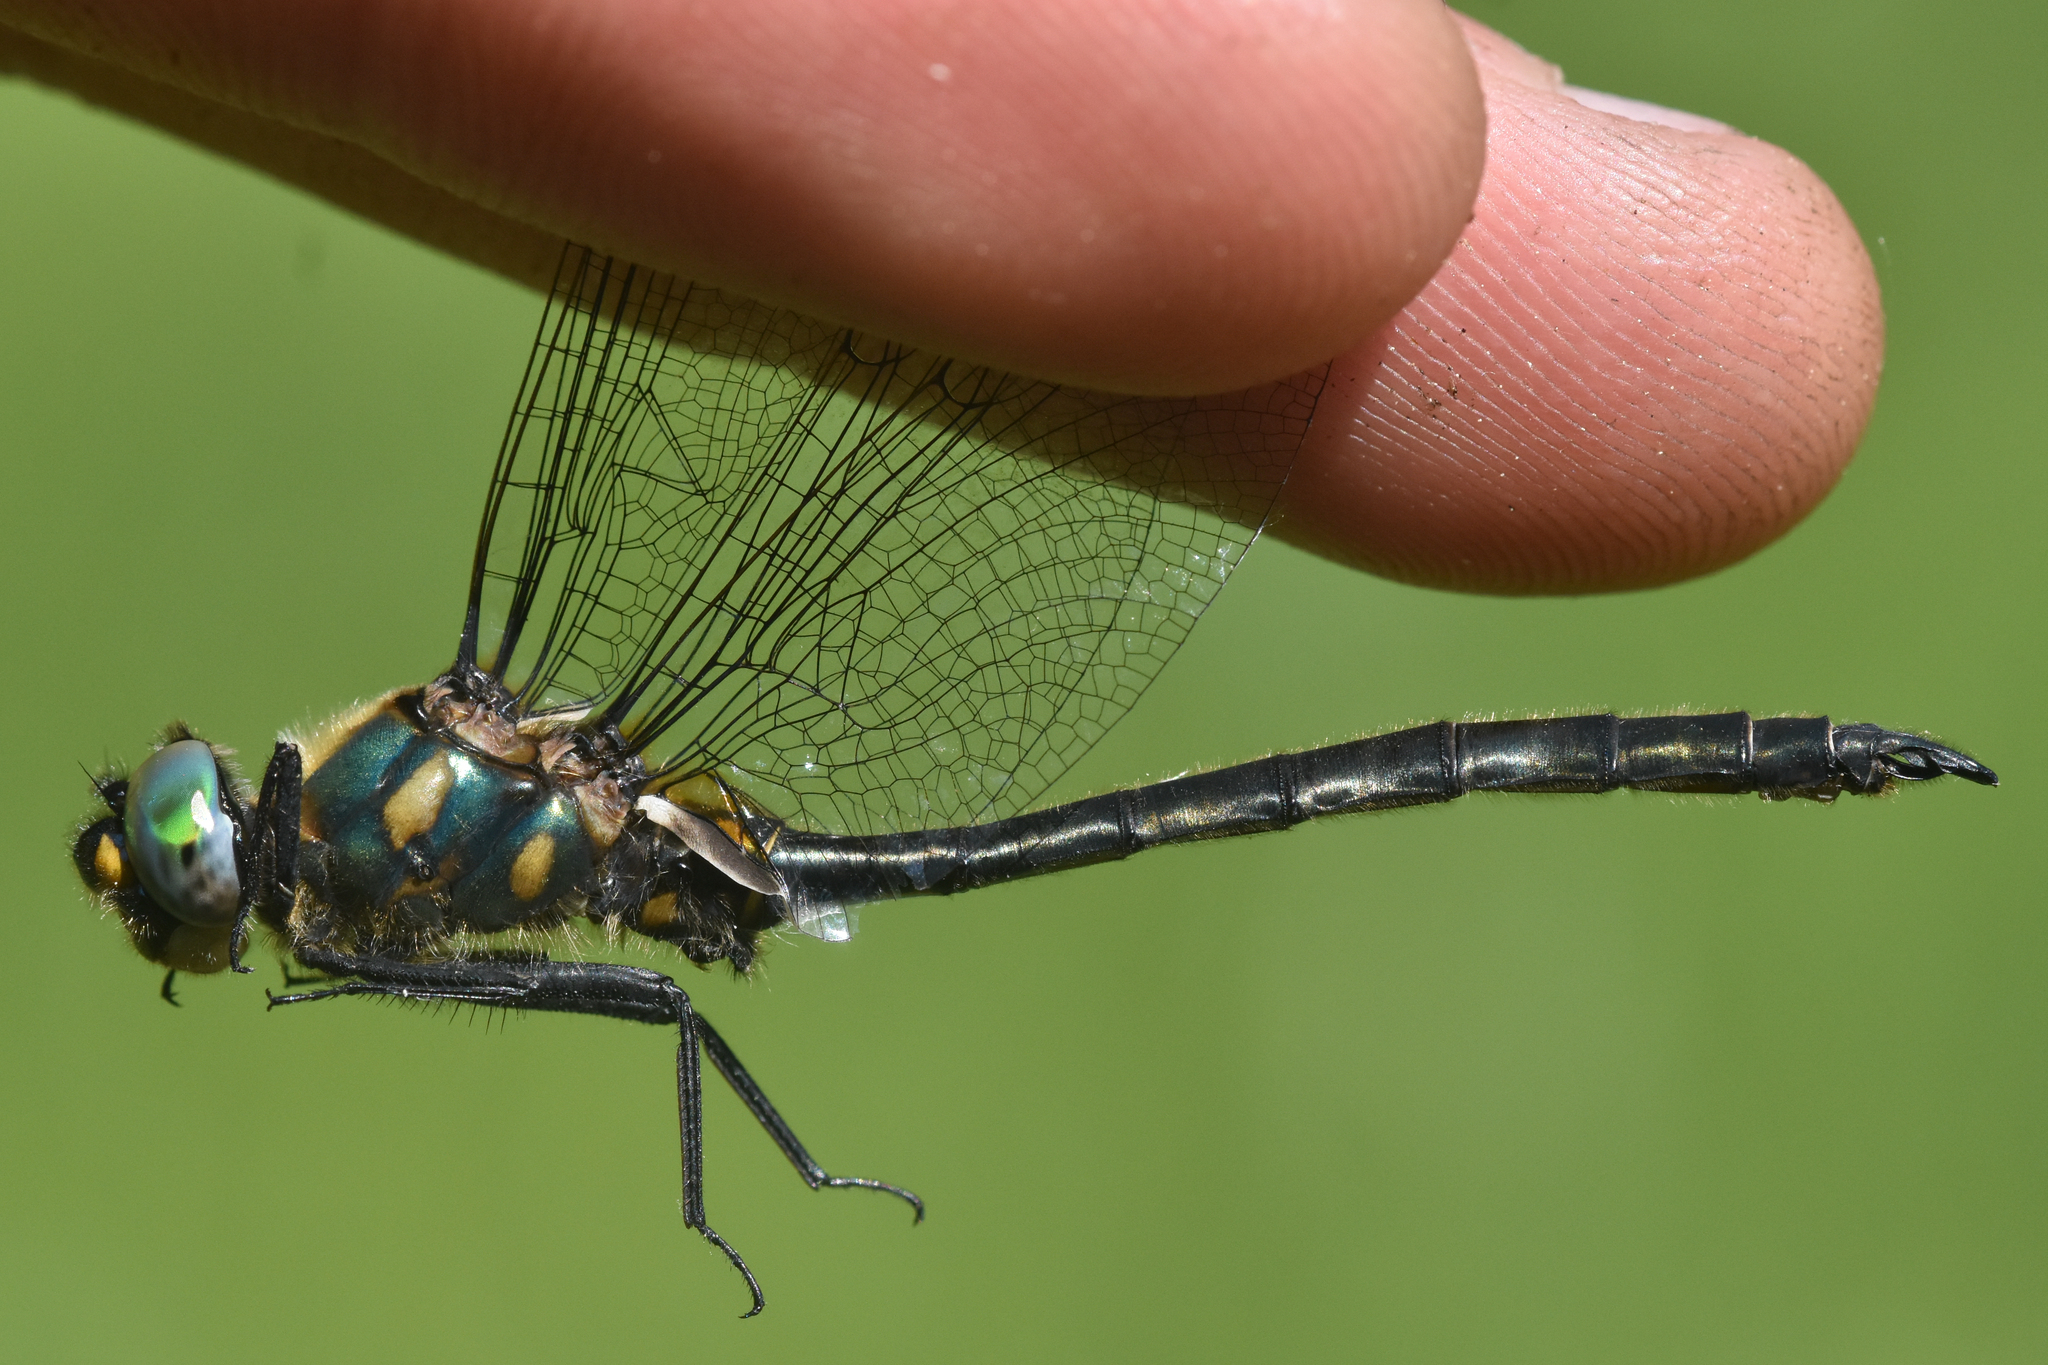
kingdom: Animalia
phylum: Arthropoda
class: Insecta
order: Odonata
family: Corduliidae
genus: Somatochlora
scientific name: Somatochlora semicircularis
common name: Mountain emerald
